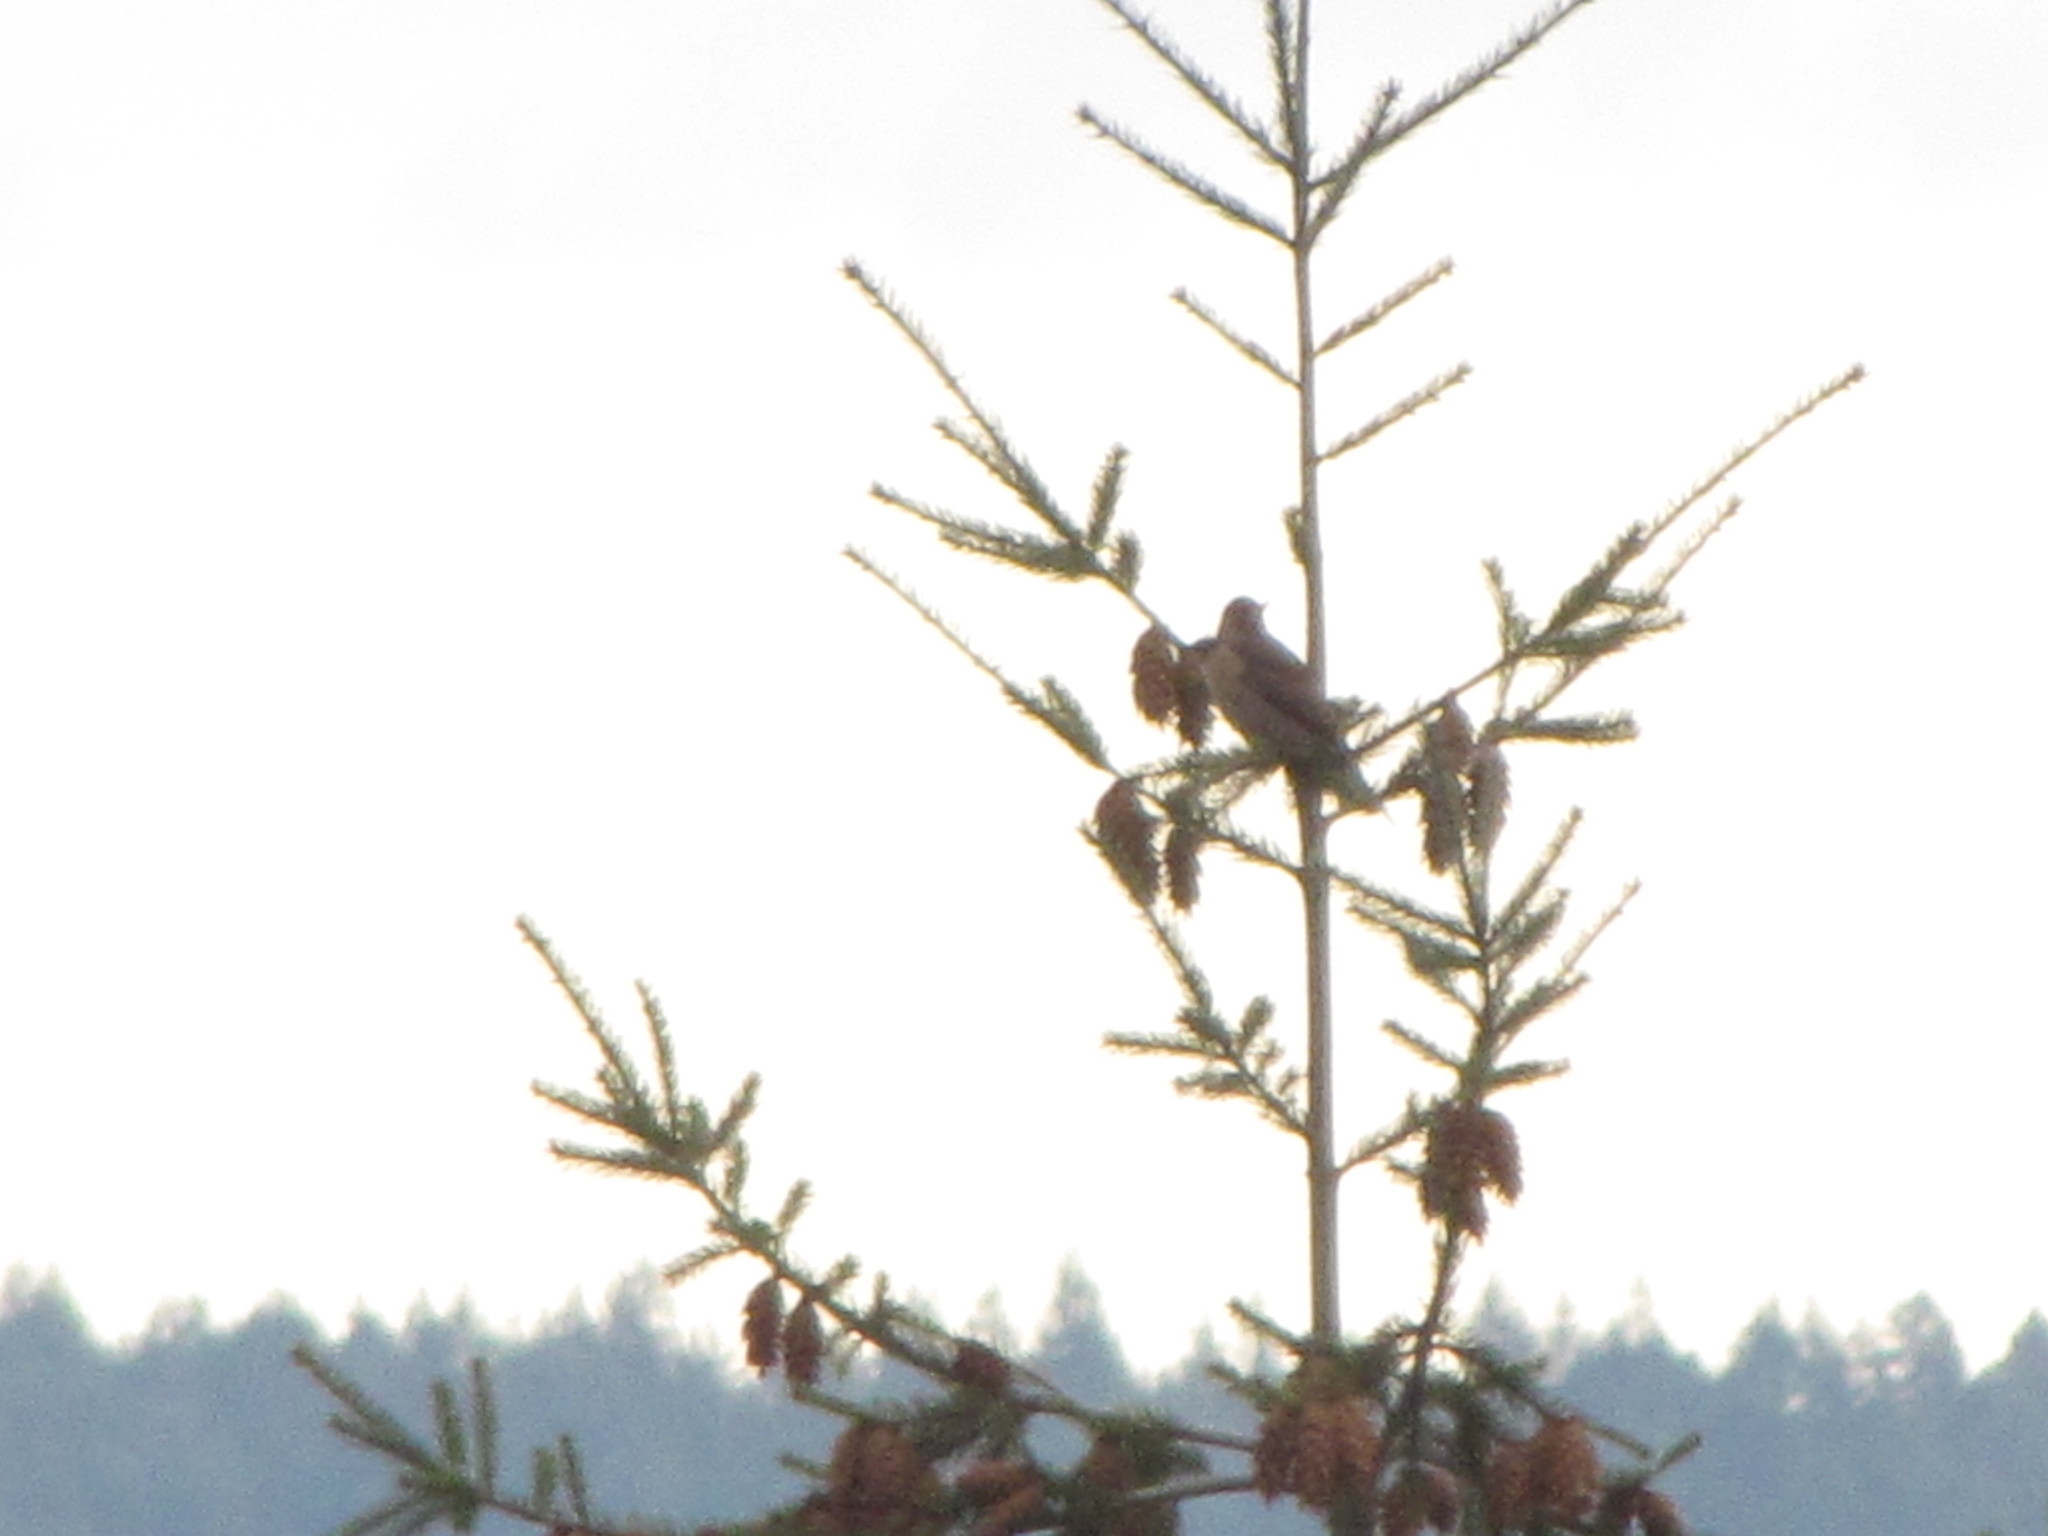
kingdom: Animalia
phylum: Chordata
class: Aves
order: Piciformes
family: Picidae
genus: Colaptes
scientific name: Colaptes auratus
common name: Northern flicker
